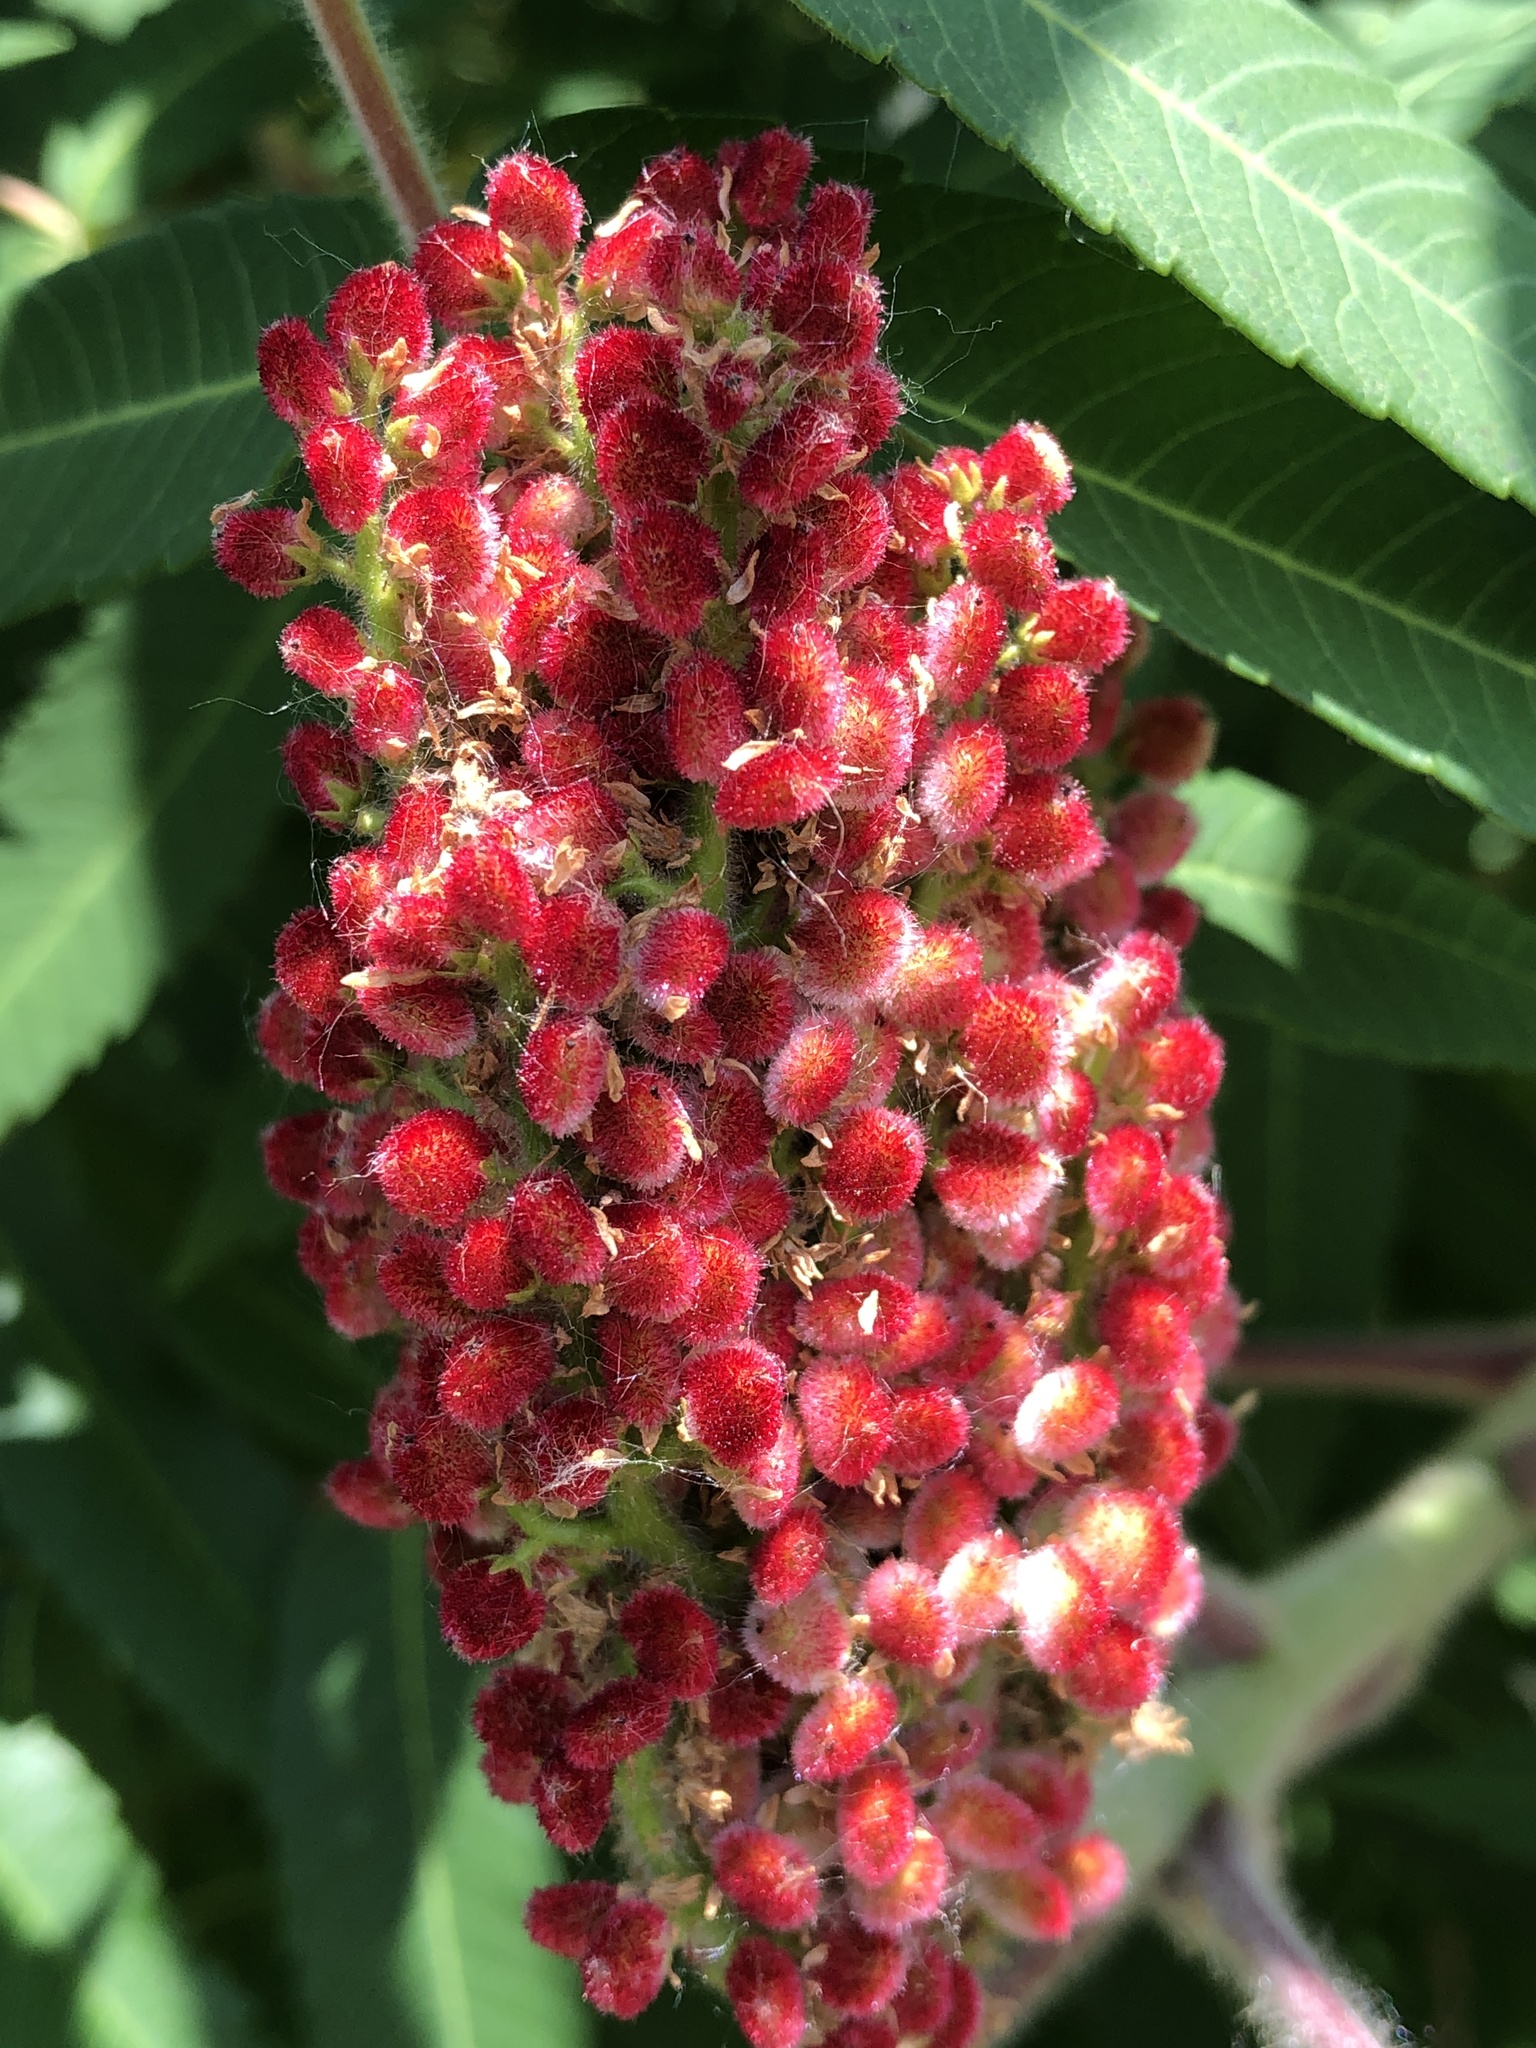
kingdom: Plantae
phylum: Tracheophyta
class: Magnoliopsida
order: Sapindales
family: Anacardiaceae
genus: Rhus
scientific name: Rhus typhina
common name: Staghorn sumac
